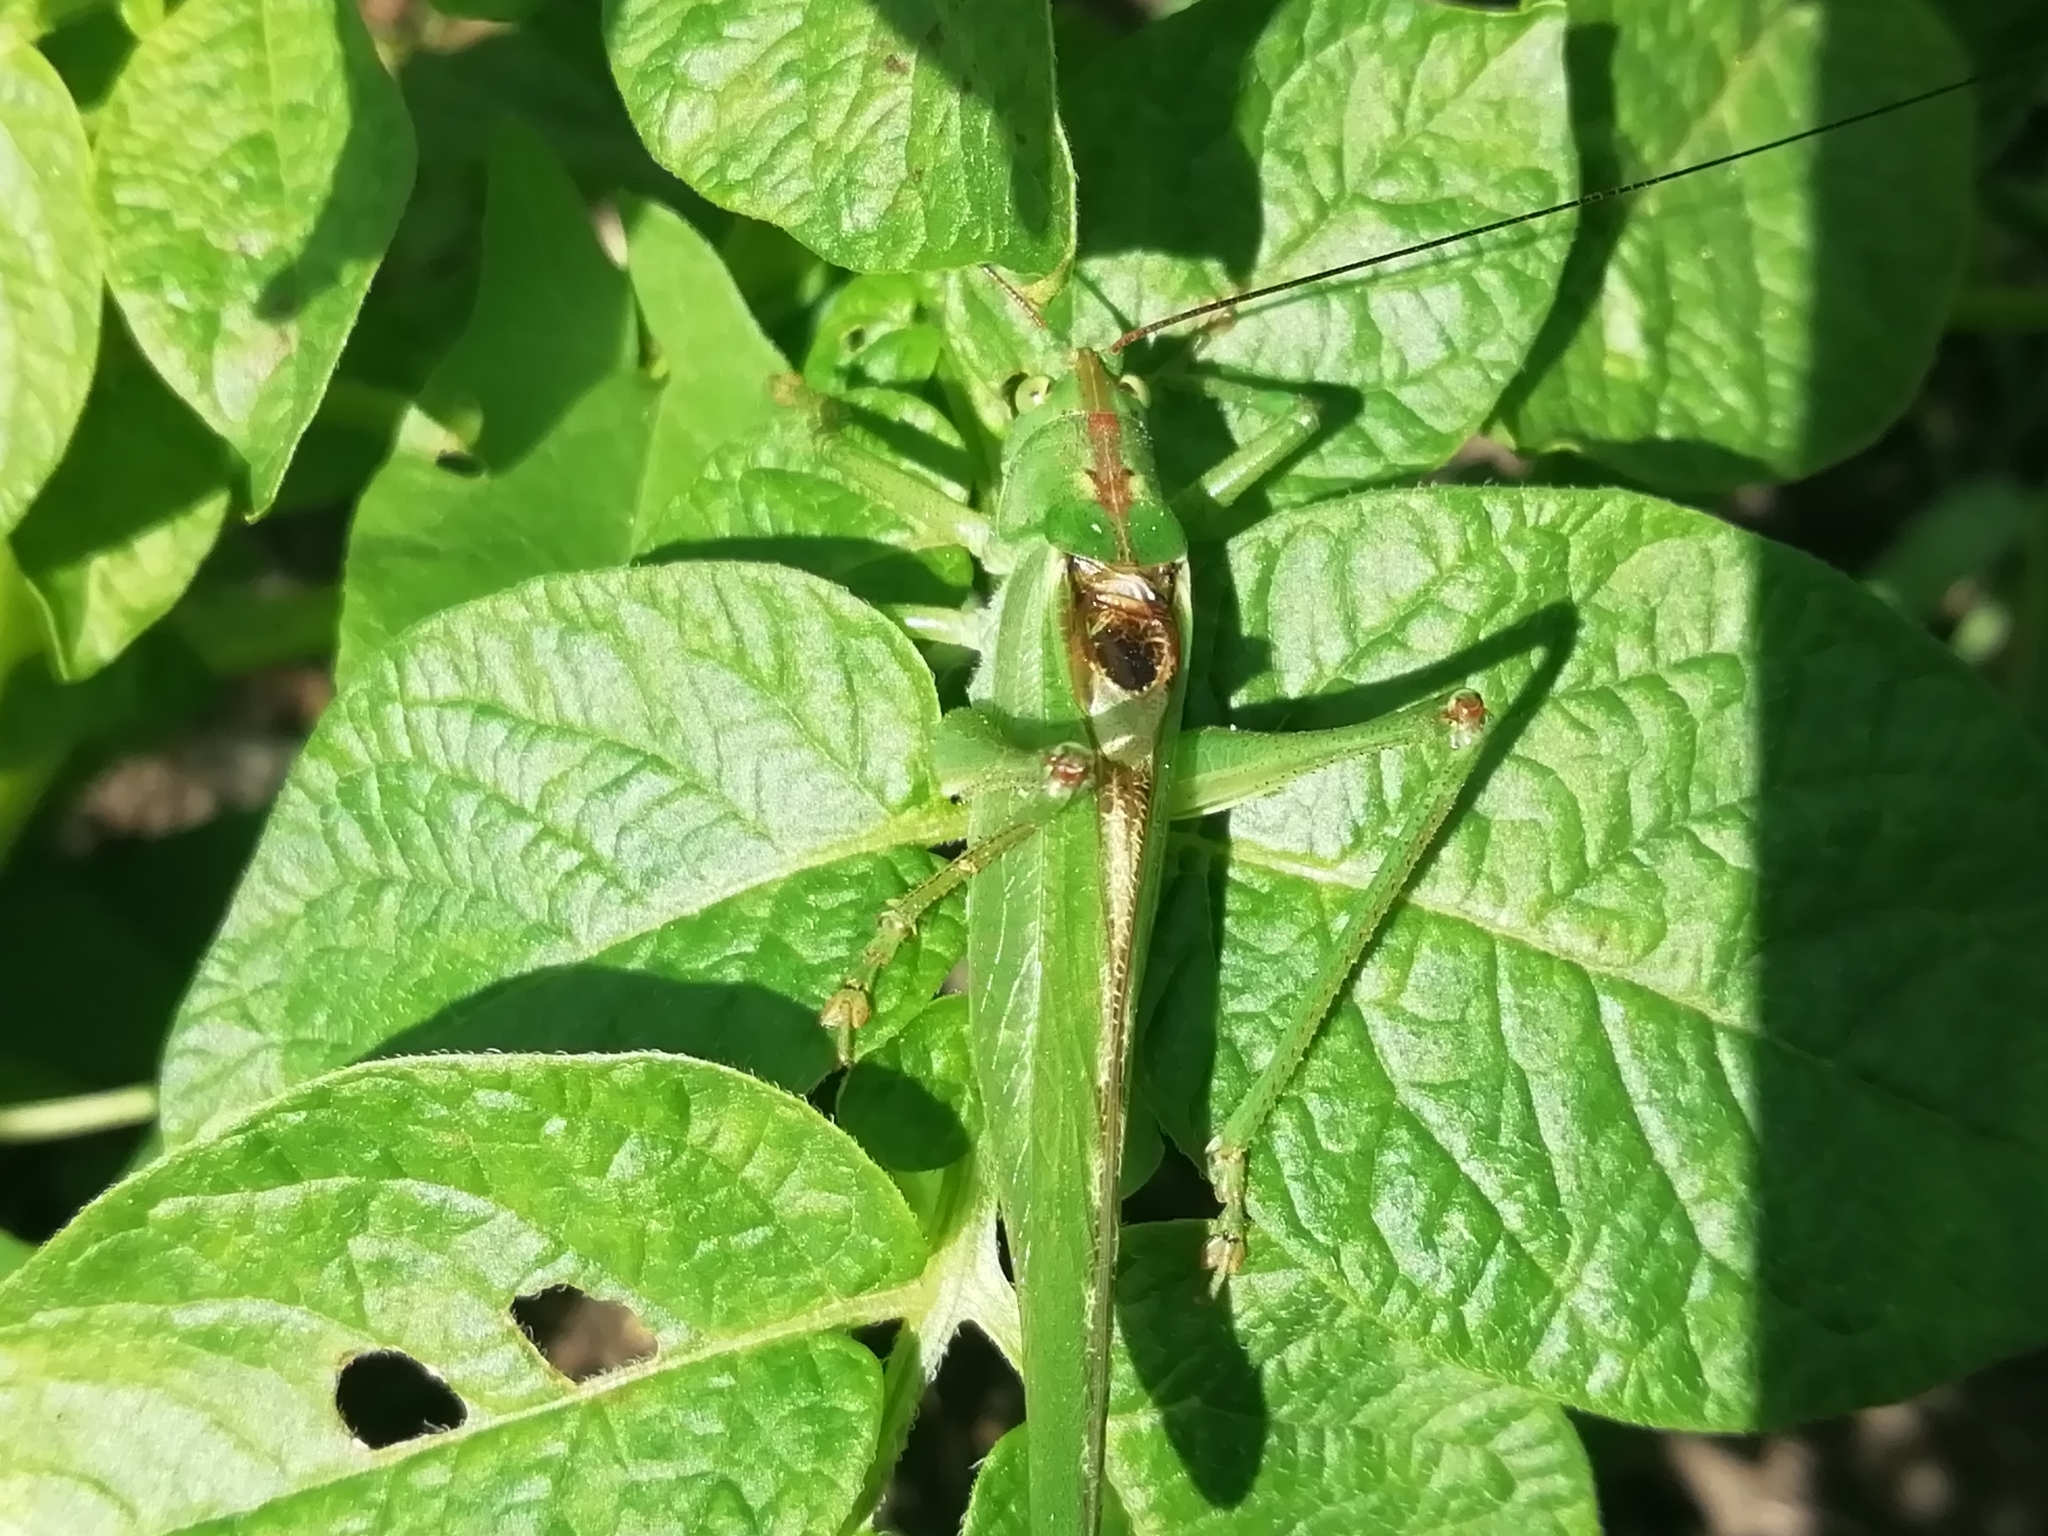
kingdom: Animalia
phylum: Arthropoda
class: Insecta
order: Orthoptera
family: Tettigoniidae
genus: Tettigonia
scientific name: Tettigonia viridissima
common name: Great green bush-cricket
